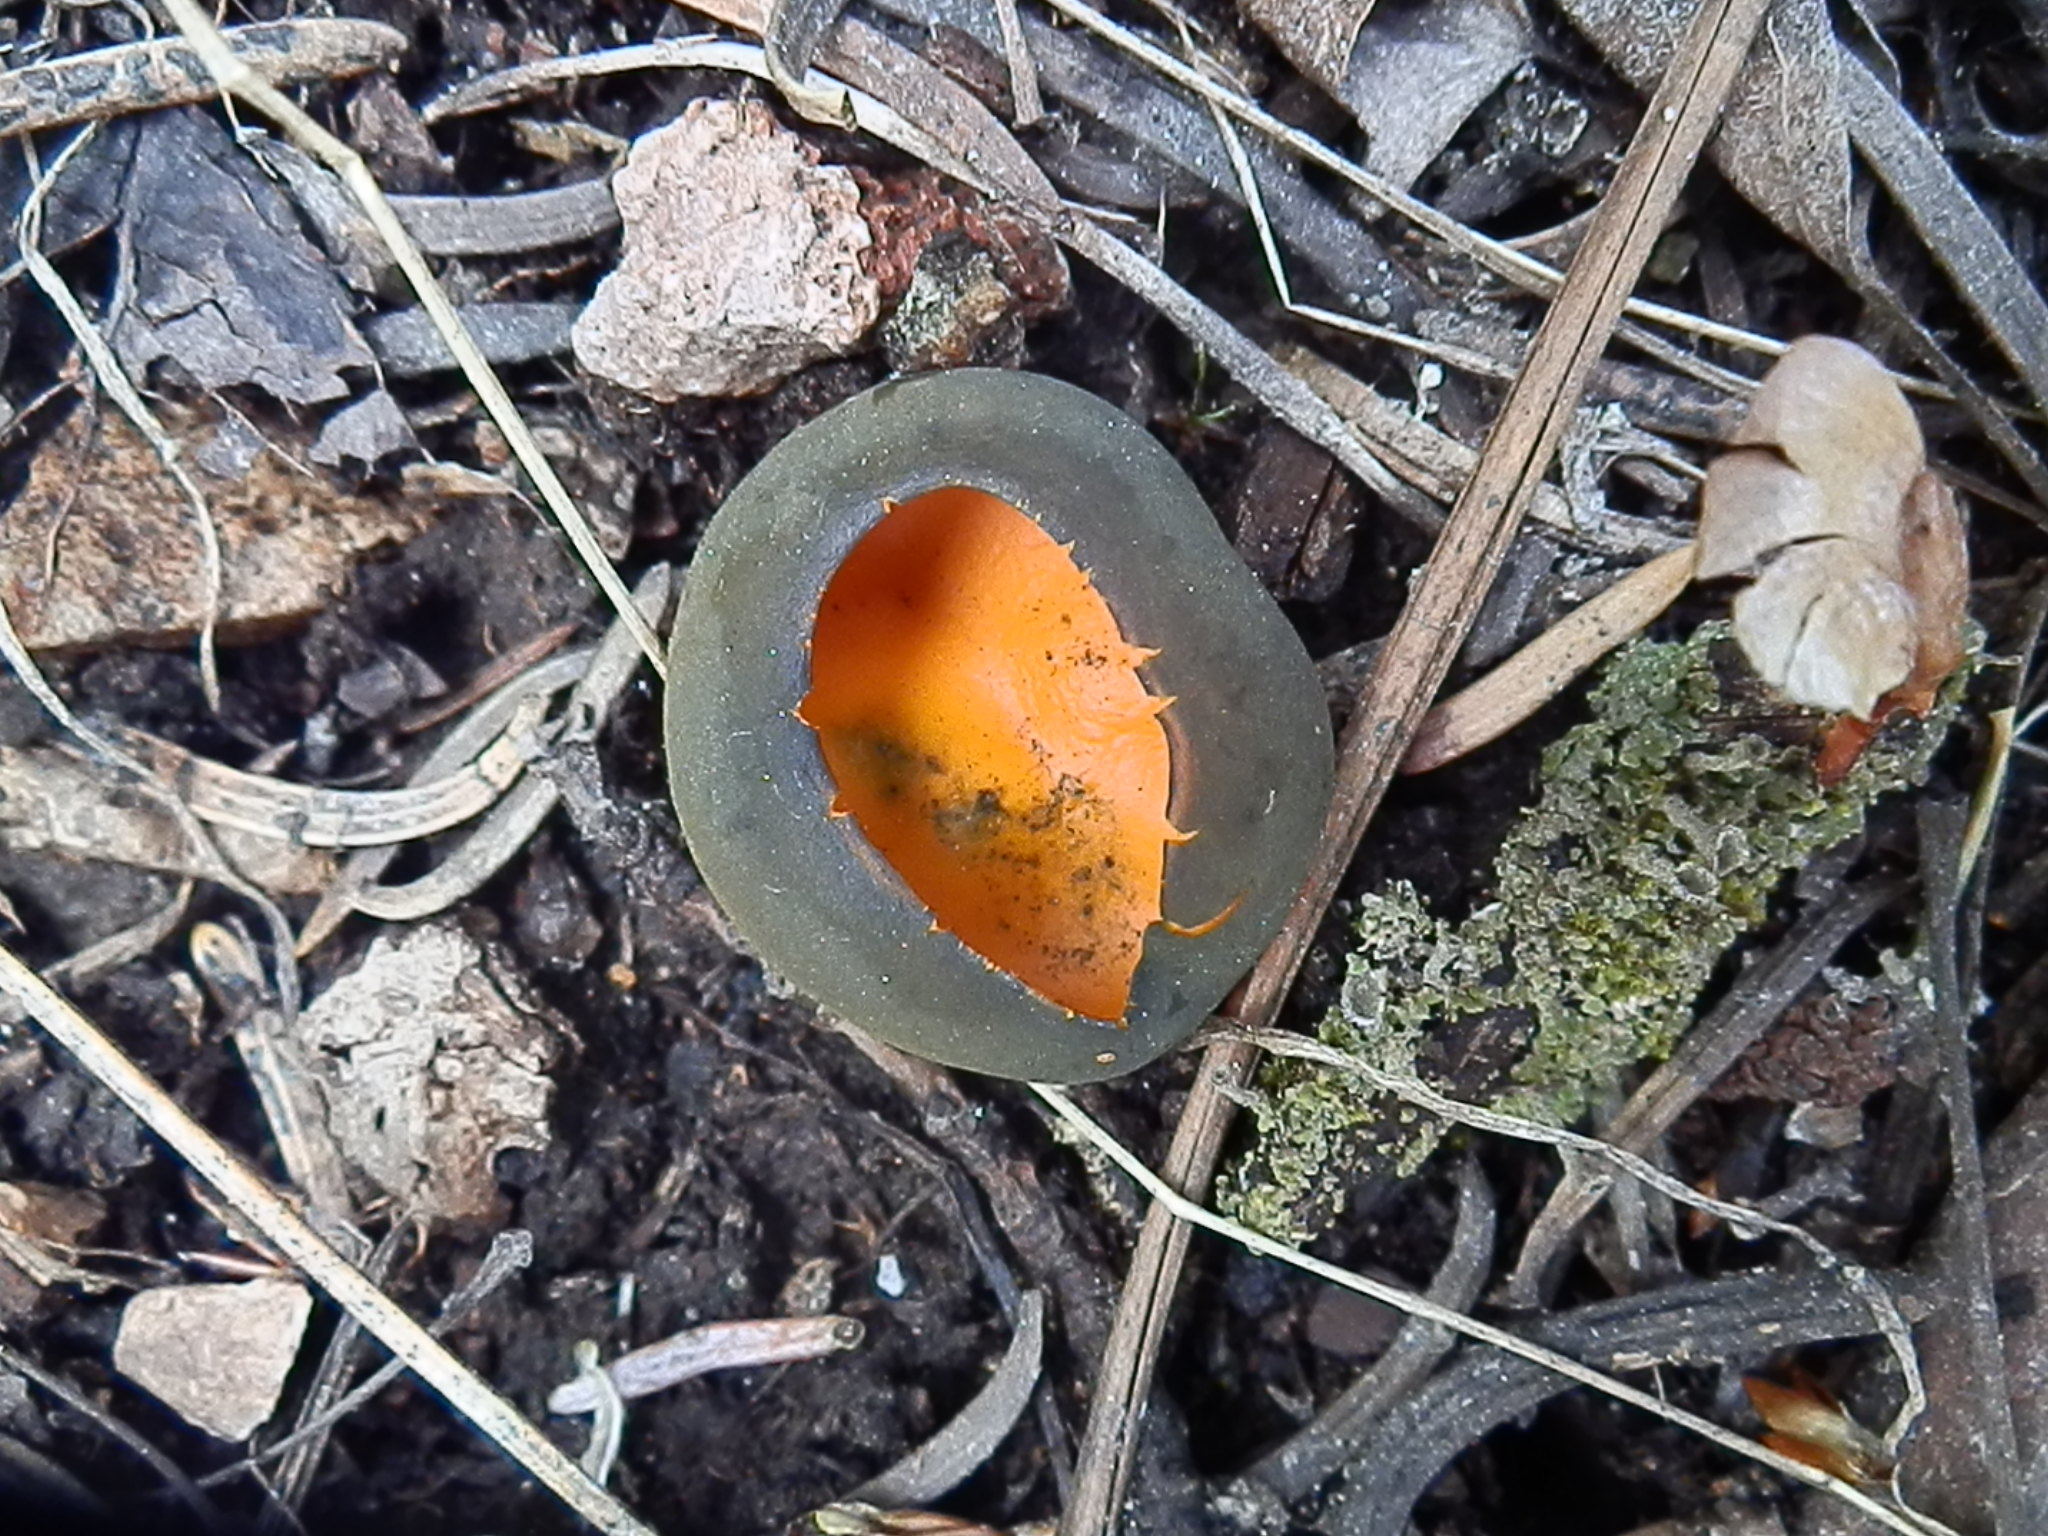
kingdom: Fungi
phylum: Ascomycota
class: Pezizomycetes
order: Pezizales
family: Caloscyphaceae
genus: Caloscypha
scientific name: Caloscypha fulgens
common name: Golden cup
